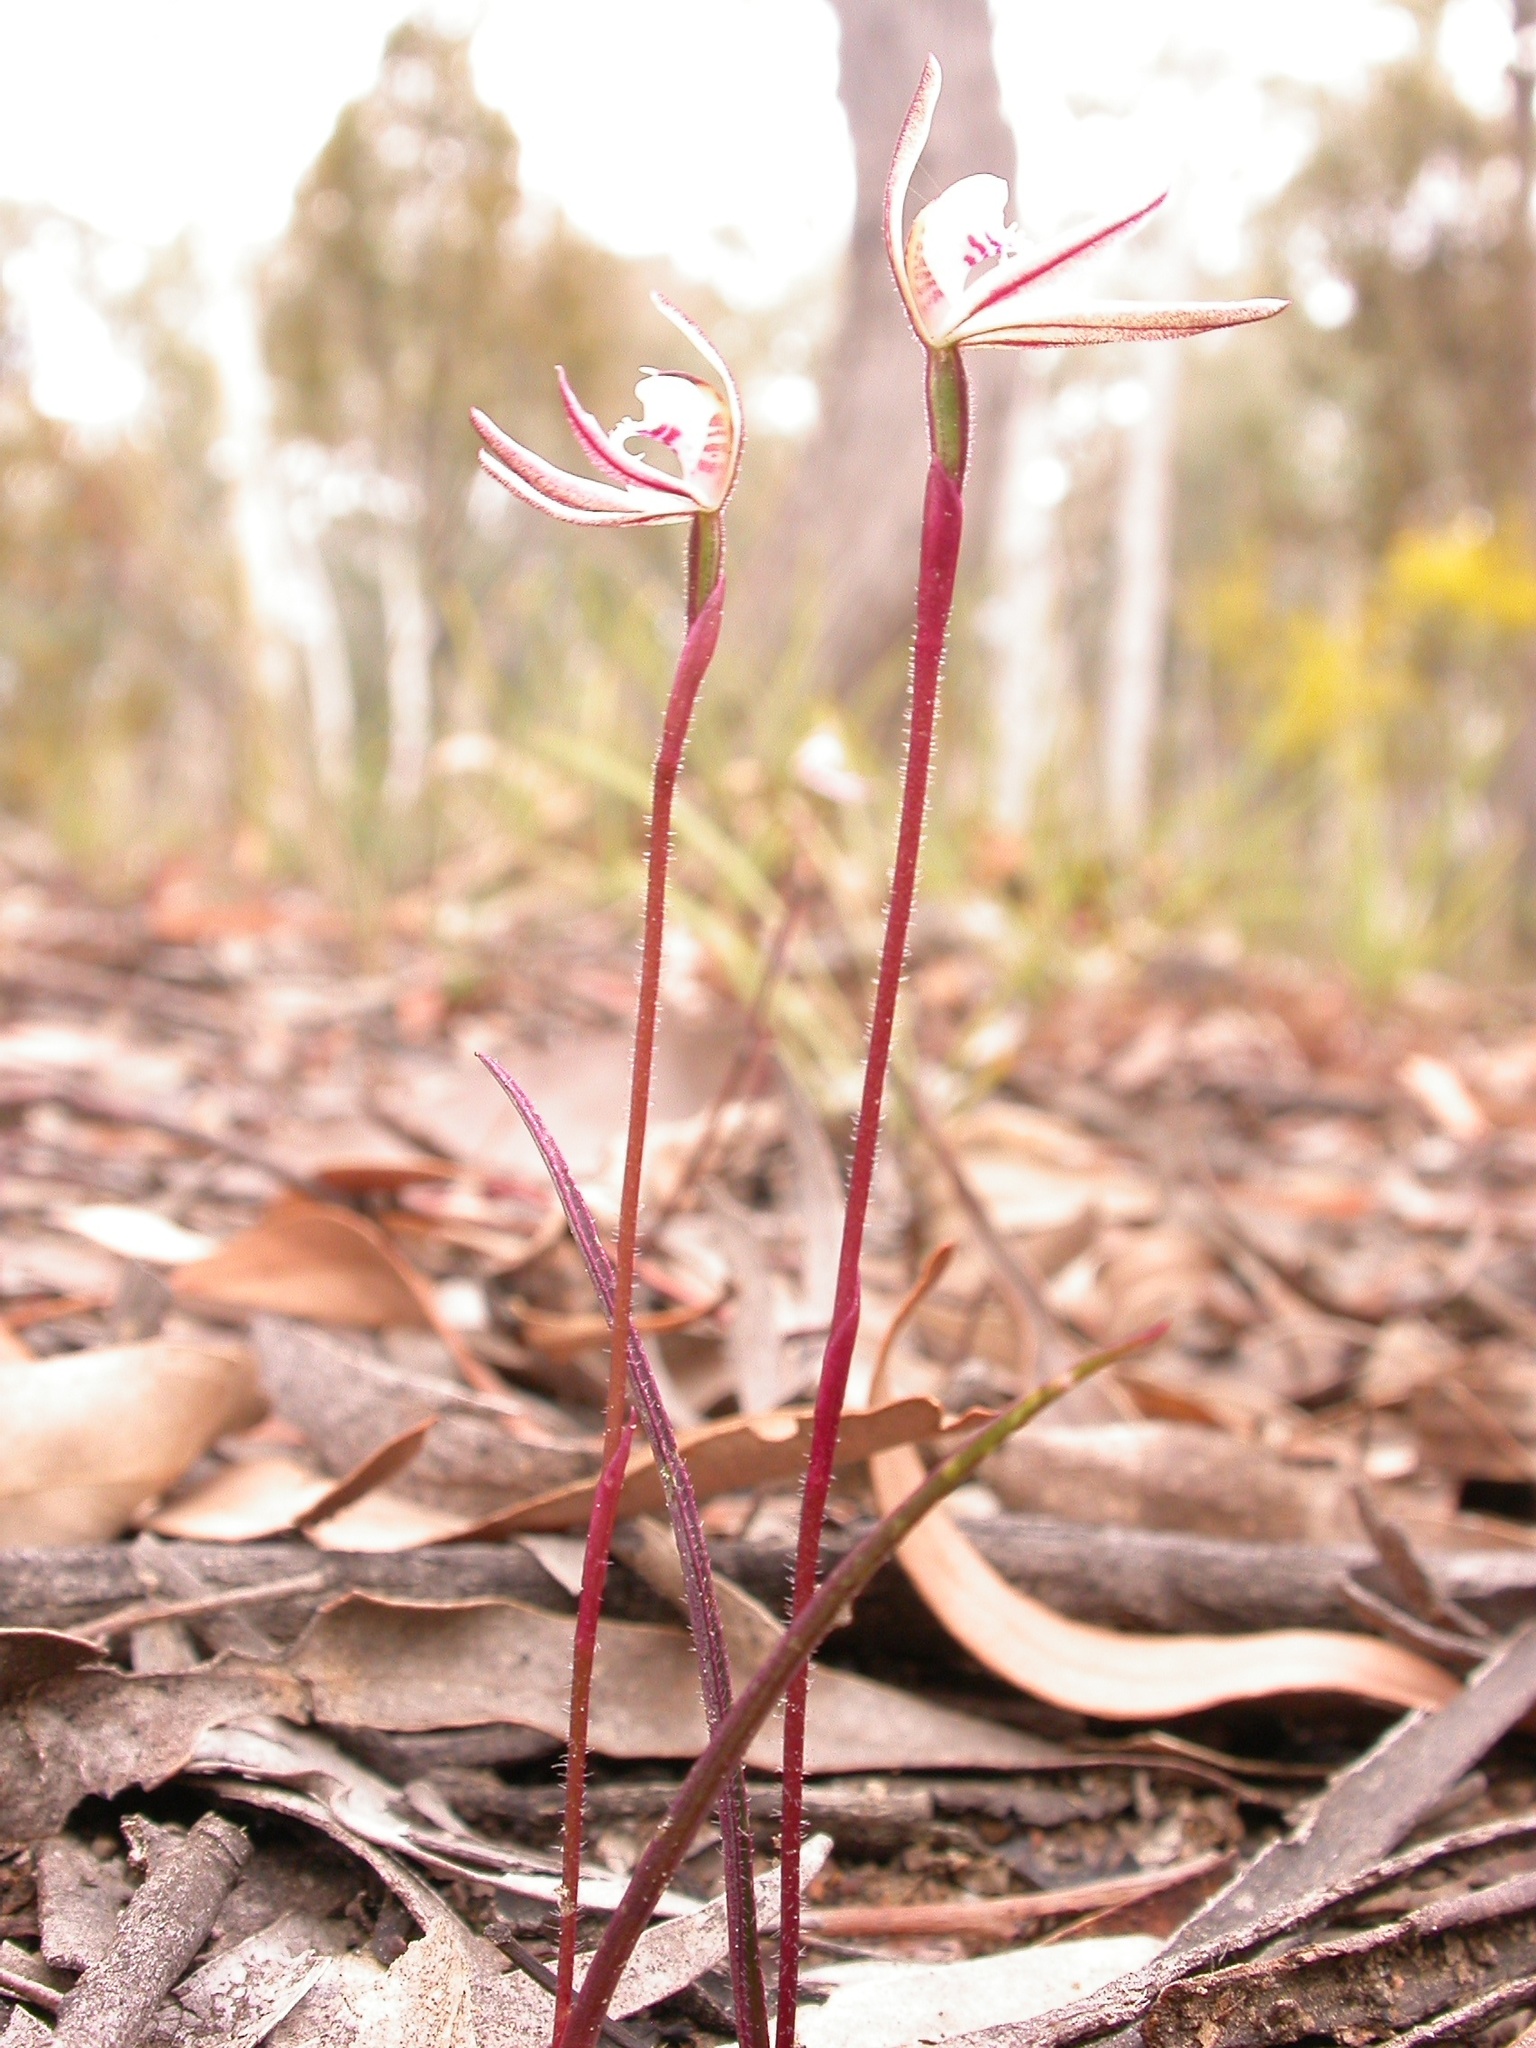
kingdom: Plantae
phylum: Tracheophyta
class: Liliopsida
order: Asparagales
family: Orchidaceae
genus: Caladenia
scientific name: Caladenia fuscata
